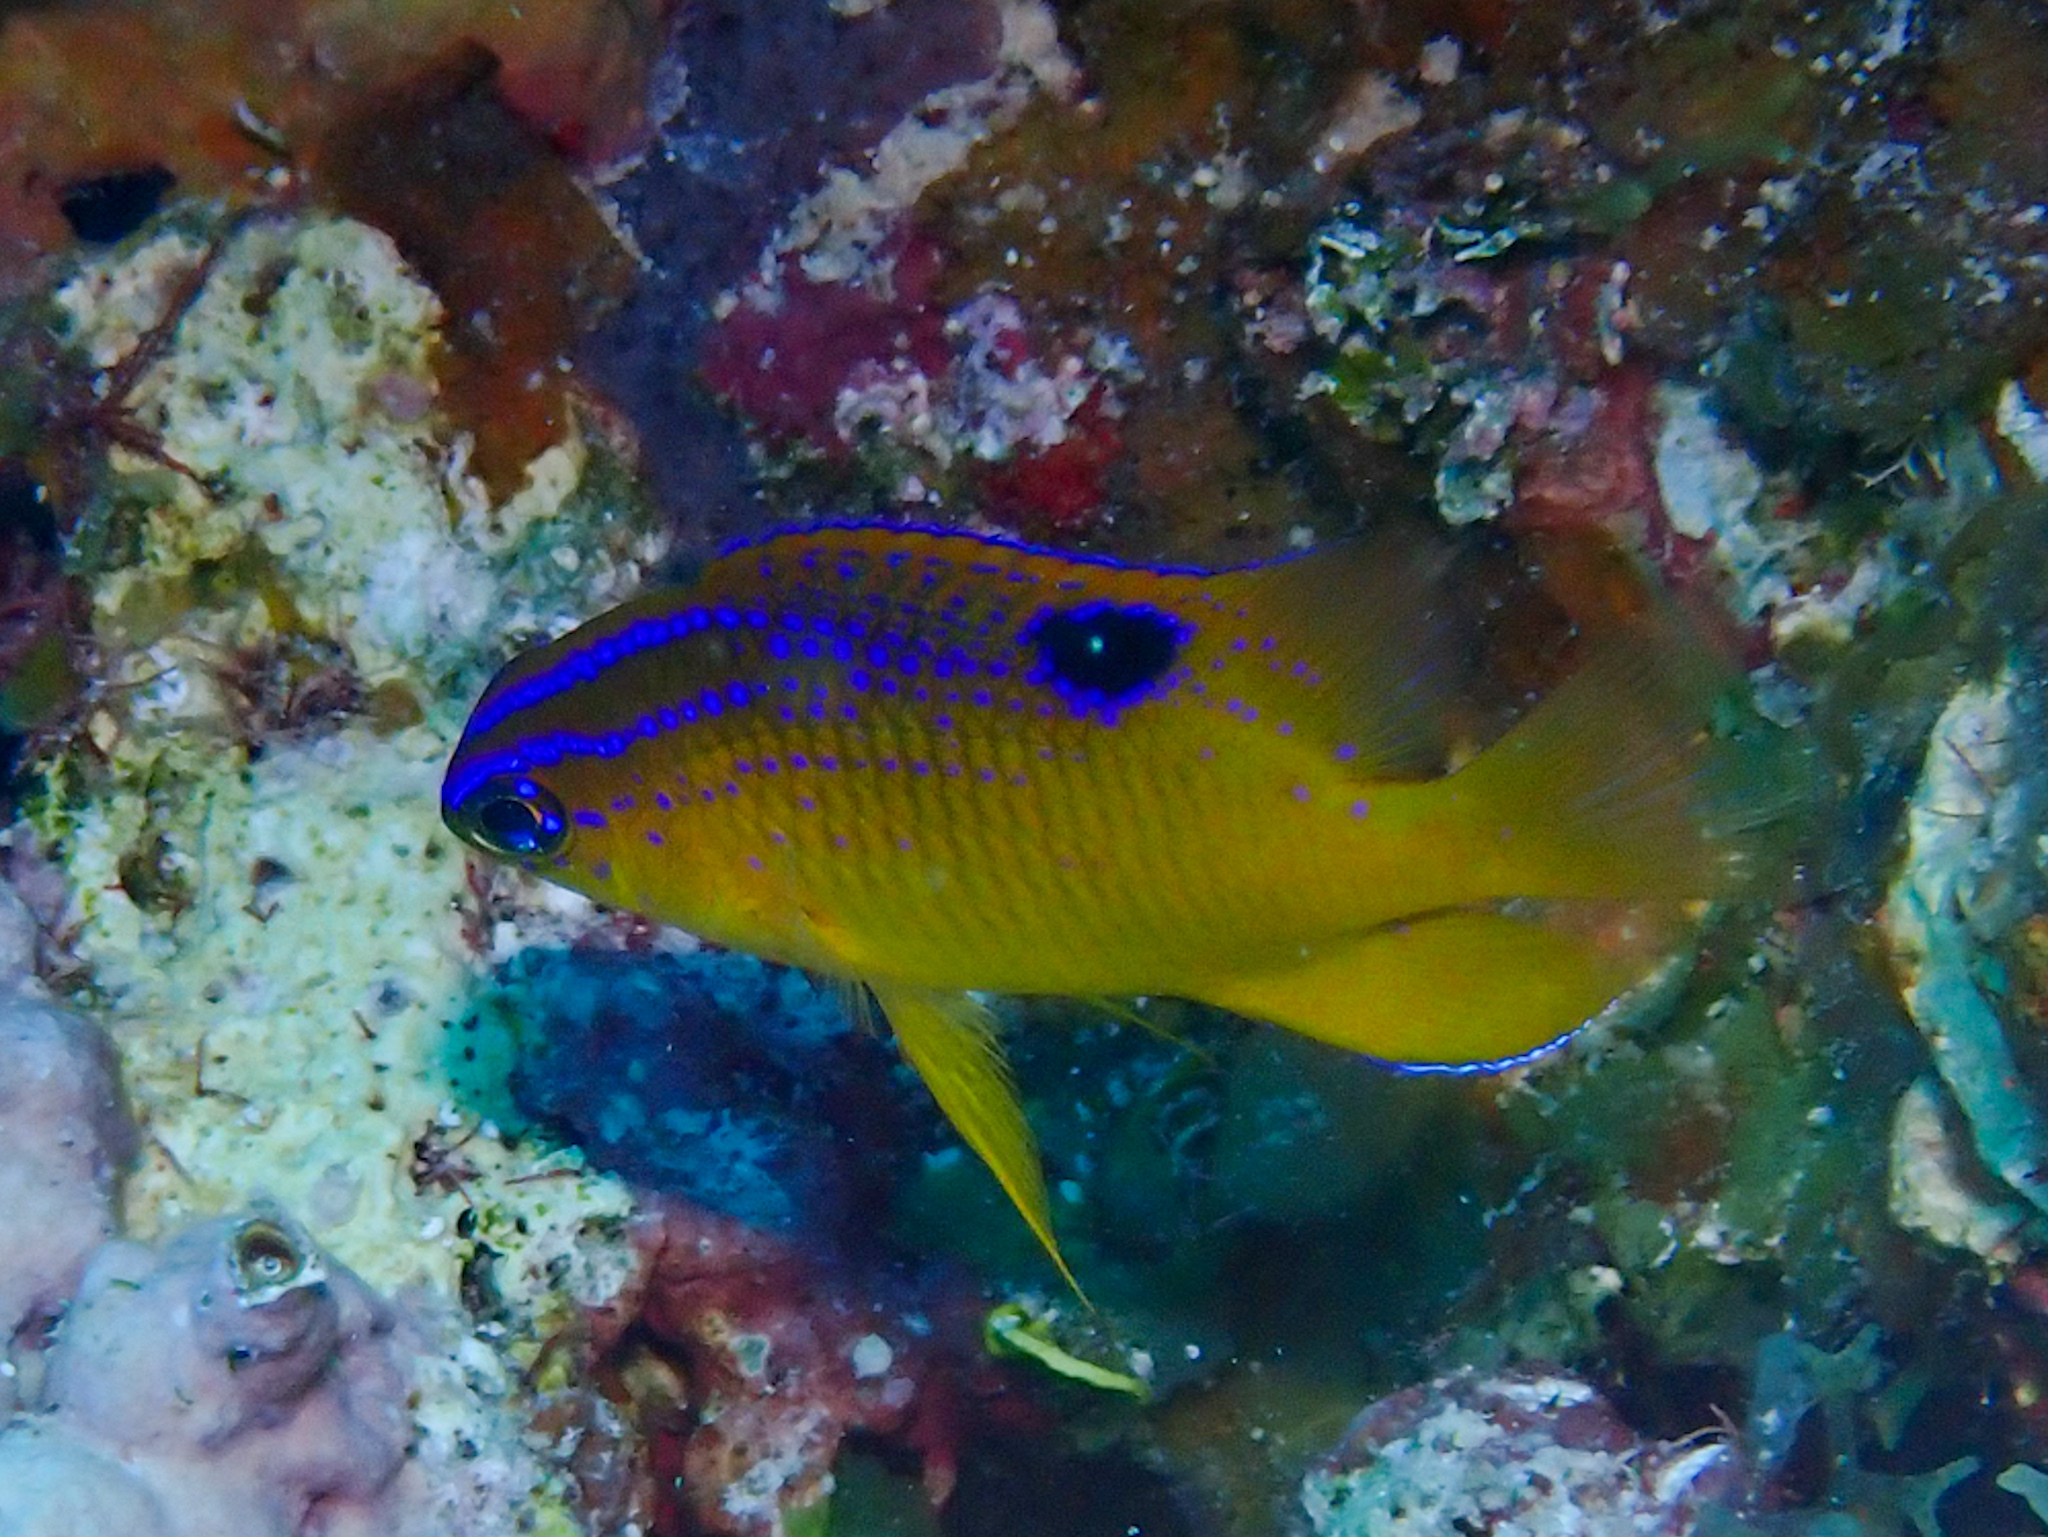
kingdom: Animalia
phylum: Chordata
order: Perciformes
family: Pomacentridae
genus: Stegastes
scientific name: Stegastes diencaeus
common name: Longfin damselfish
